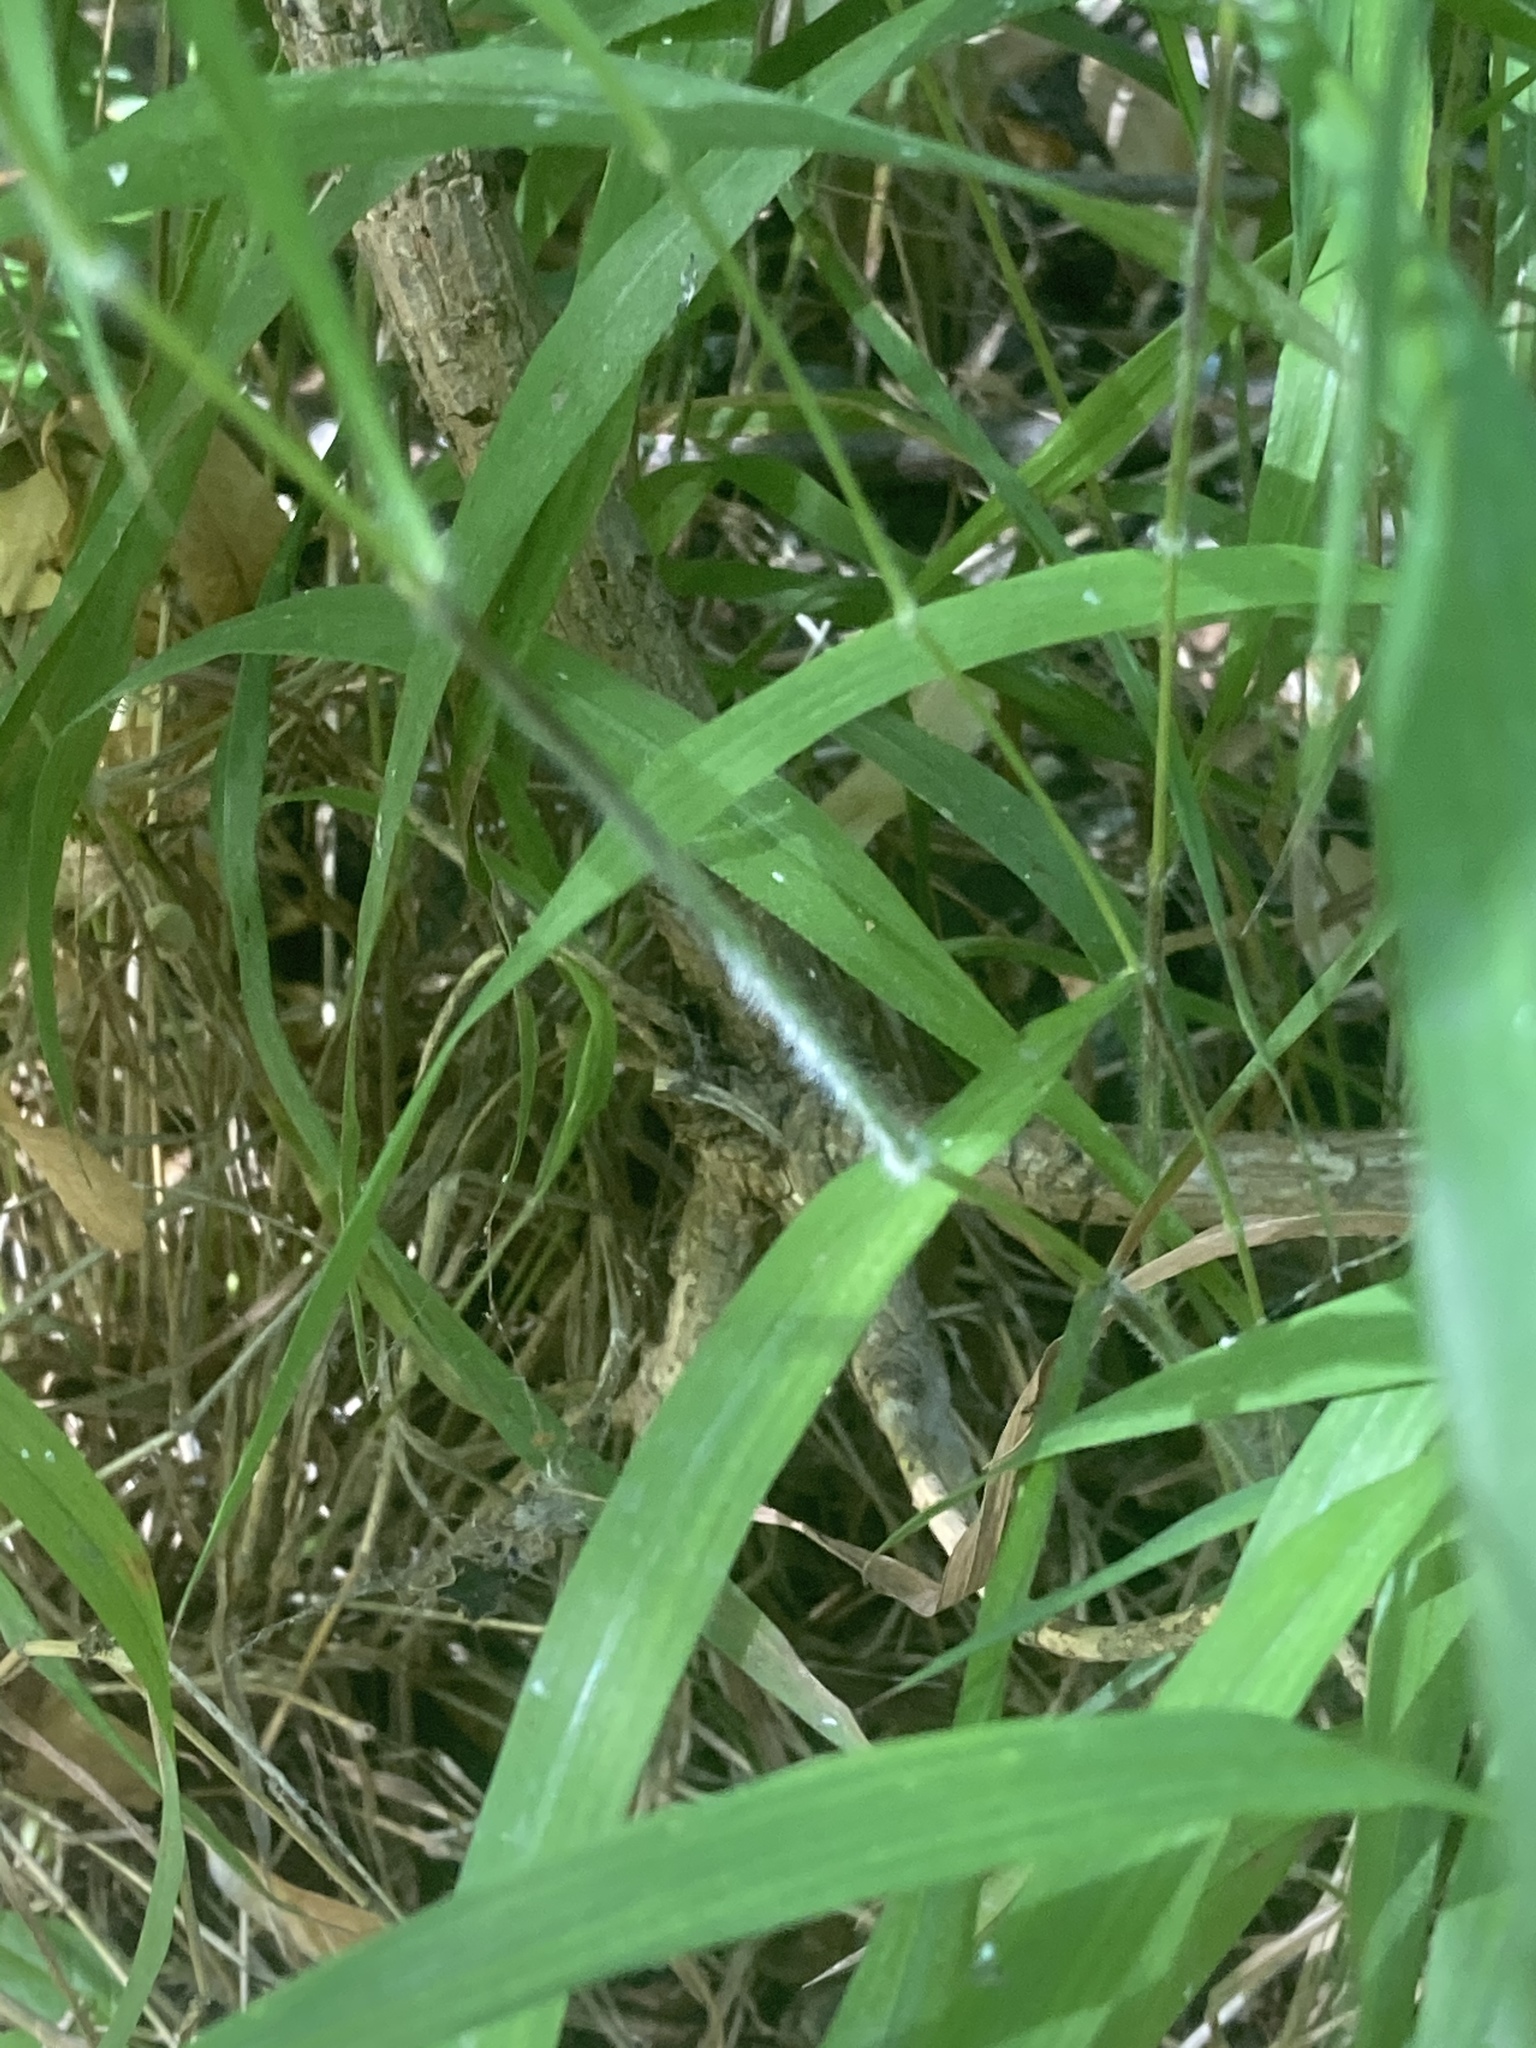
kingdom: Plantae
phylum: Tracheophyta
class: Liliopsida
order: Poales
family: Poaceae
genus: Brachypodium
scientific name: Brachypodium sylvaticum
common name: False-brome
